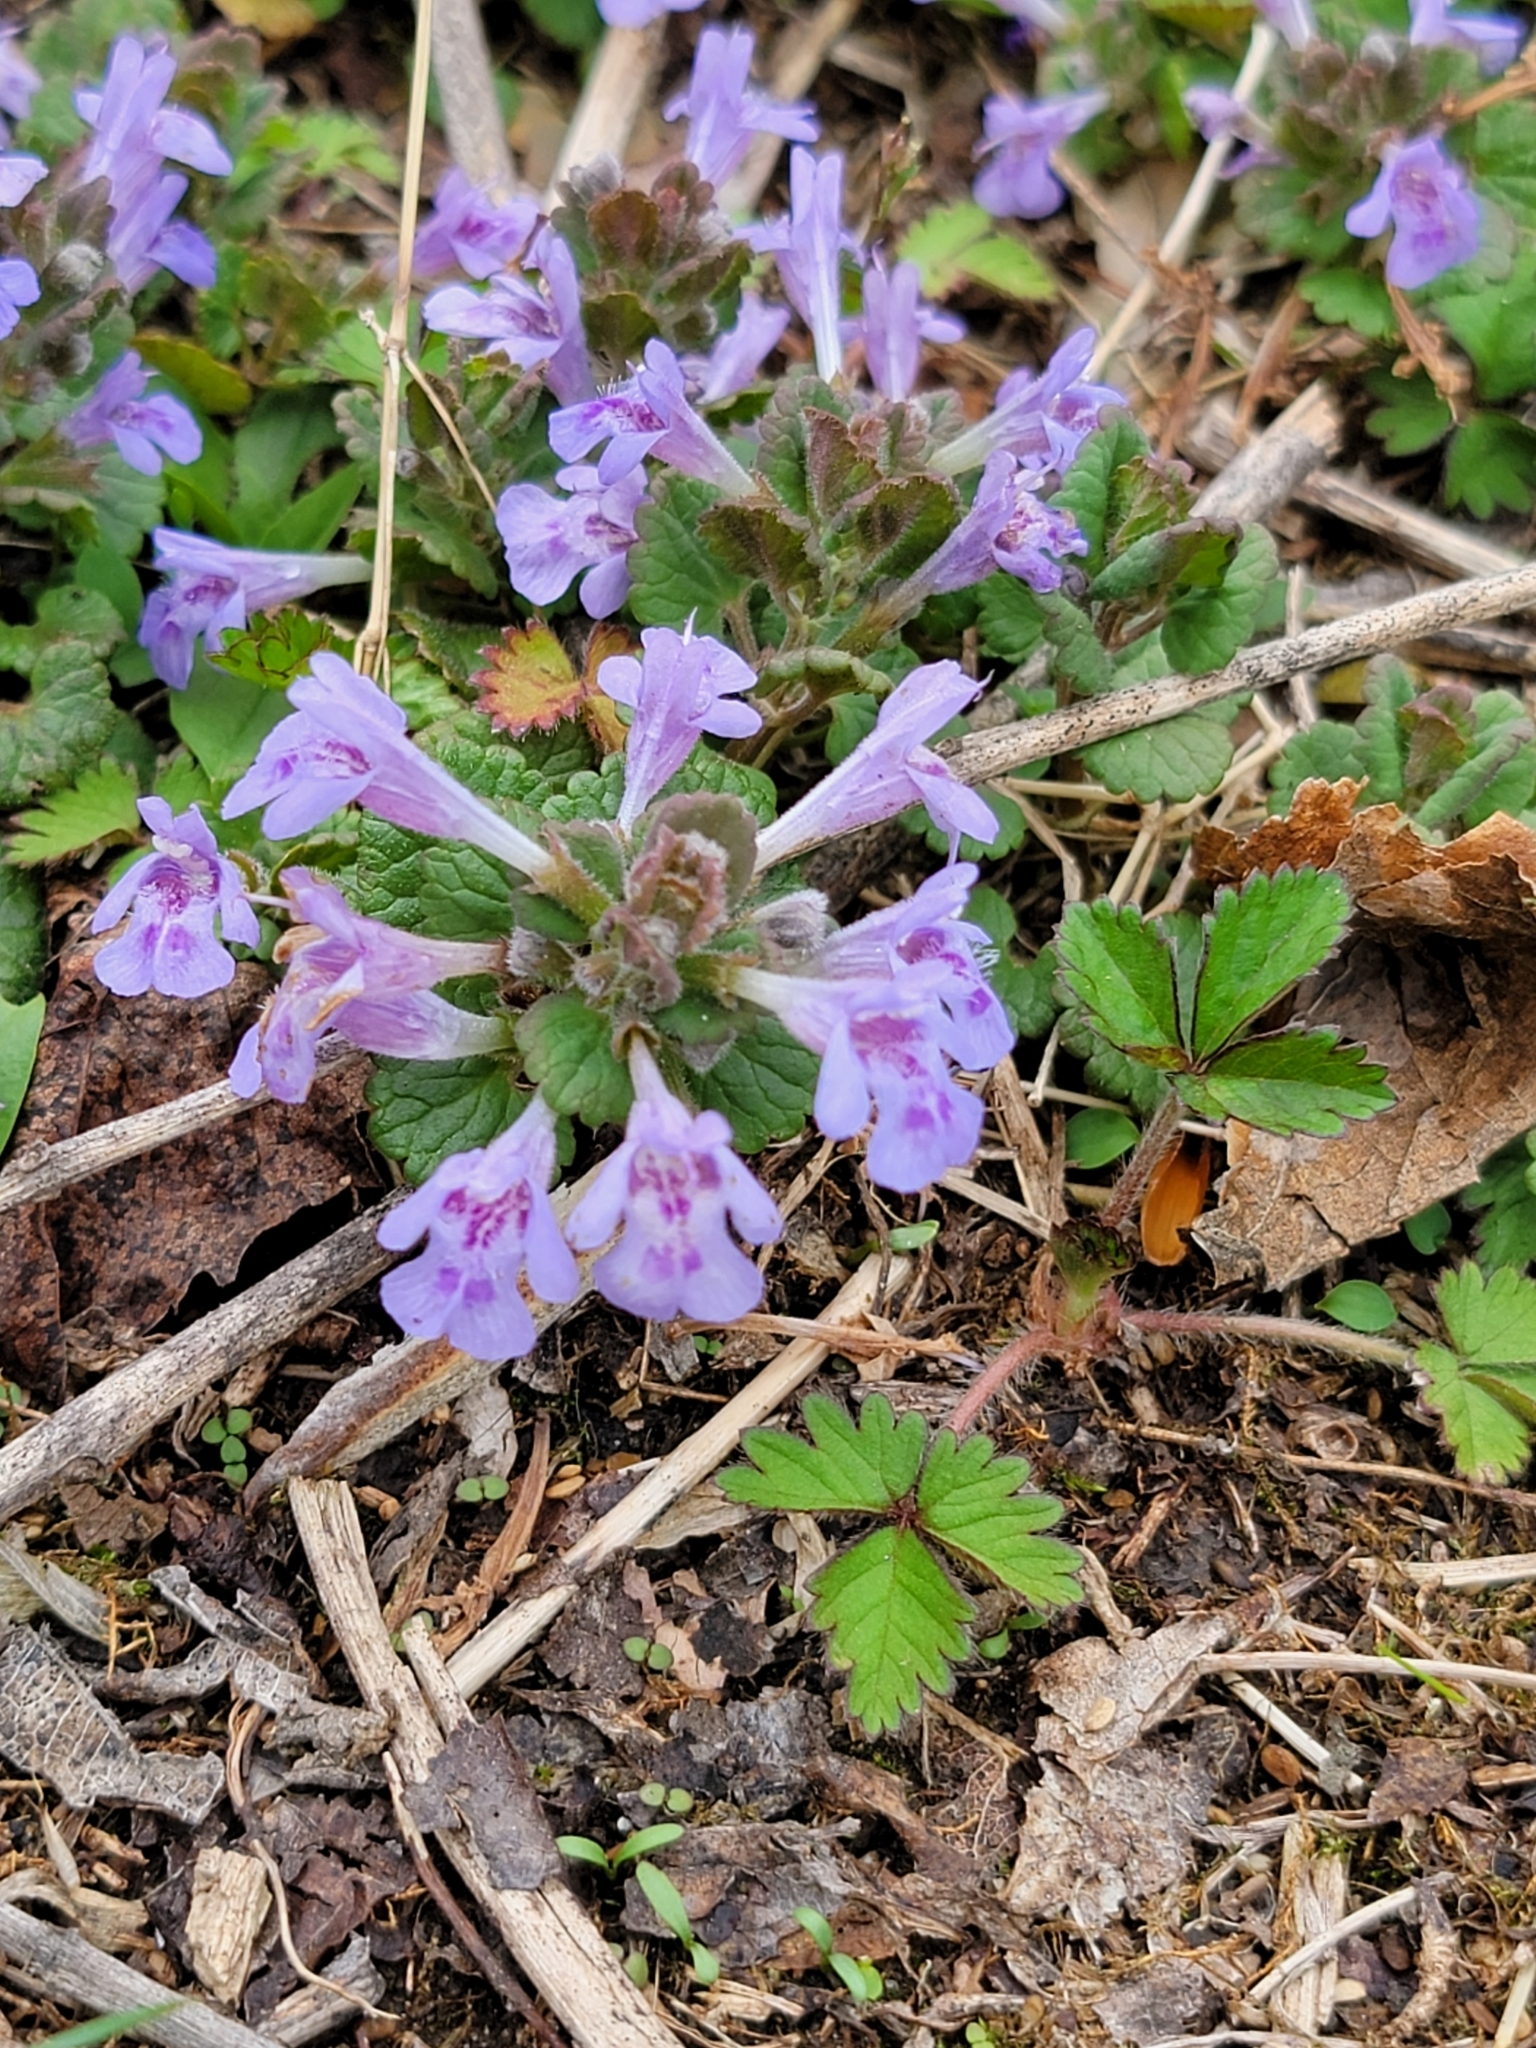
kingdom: Plantae
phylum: Tracheophyta
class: Magnoliopsida
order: Lamiales
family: Lamiaceae
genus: Glechoma
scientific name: Glechoma hederacea
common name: Ground ivy
